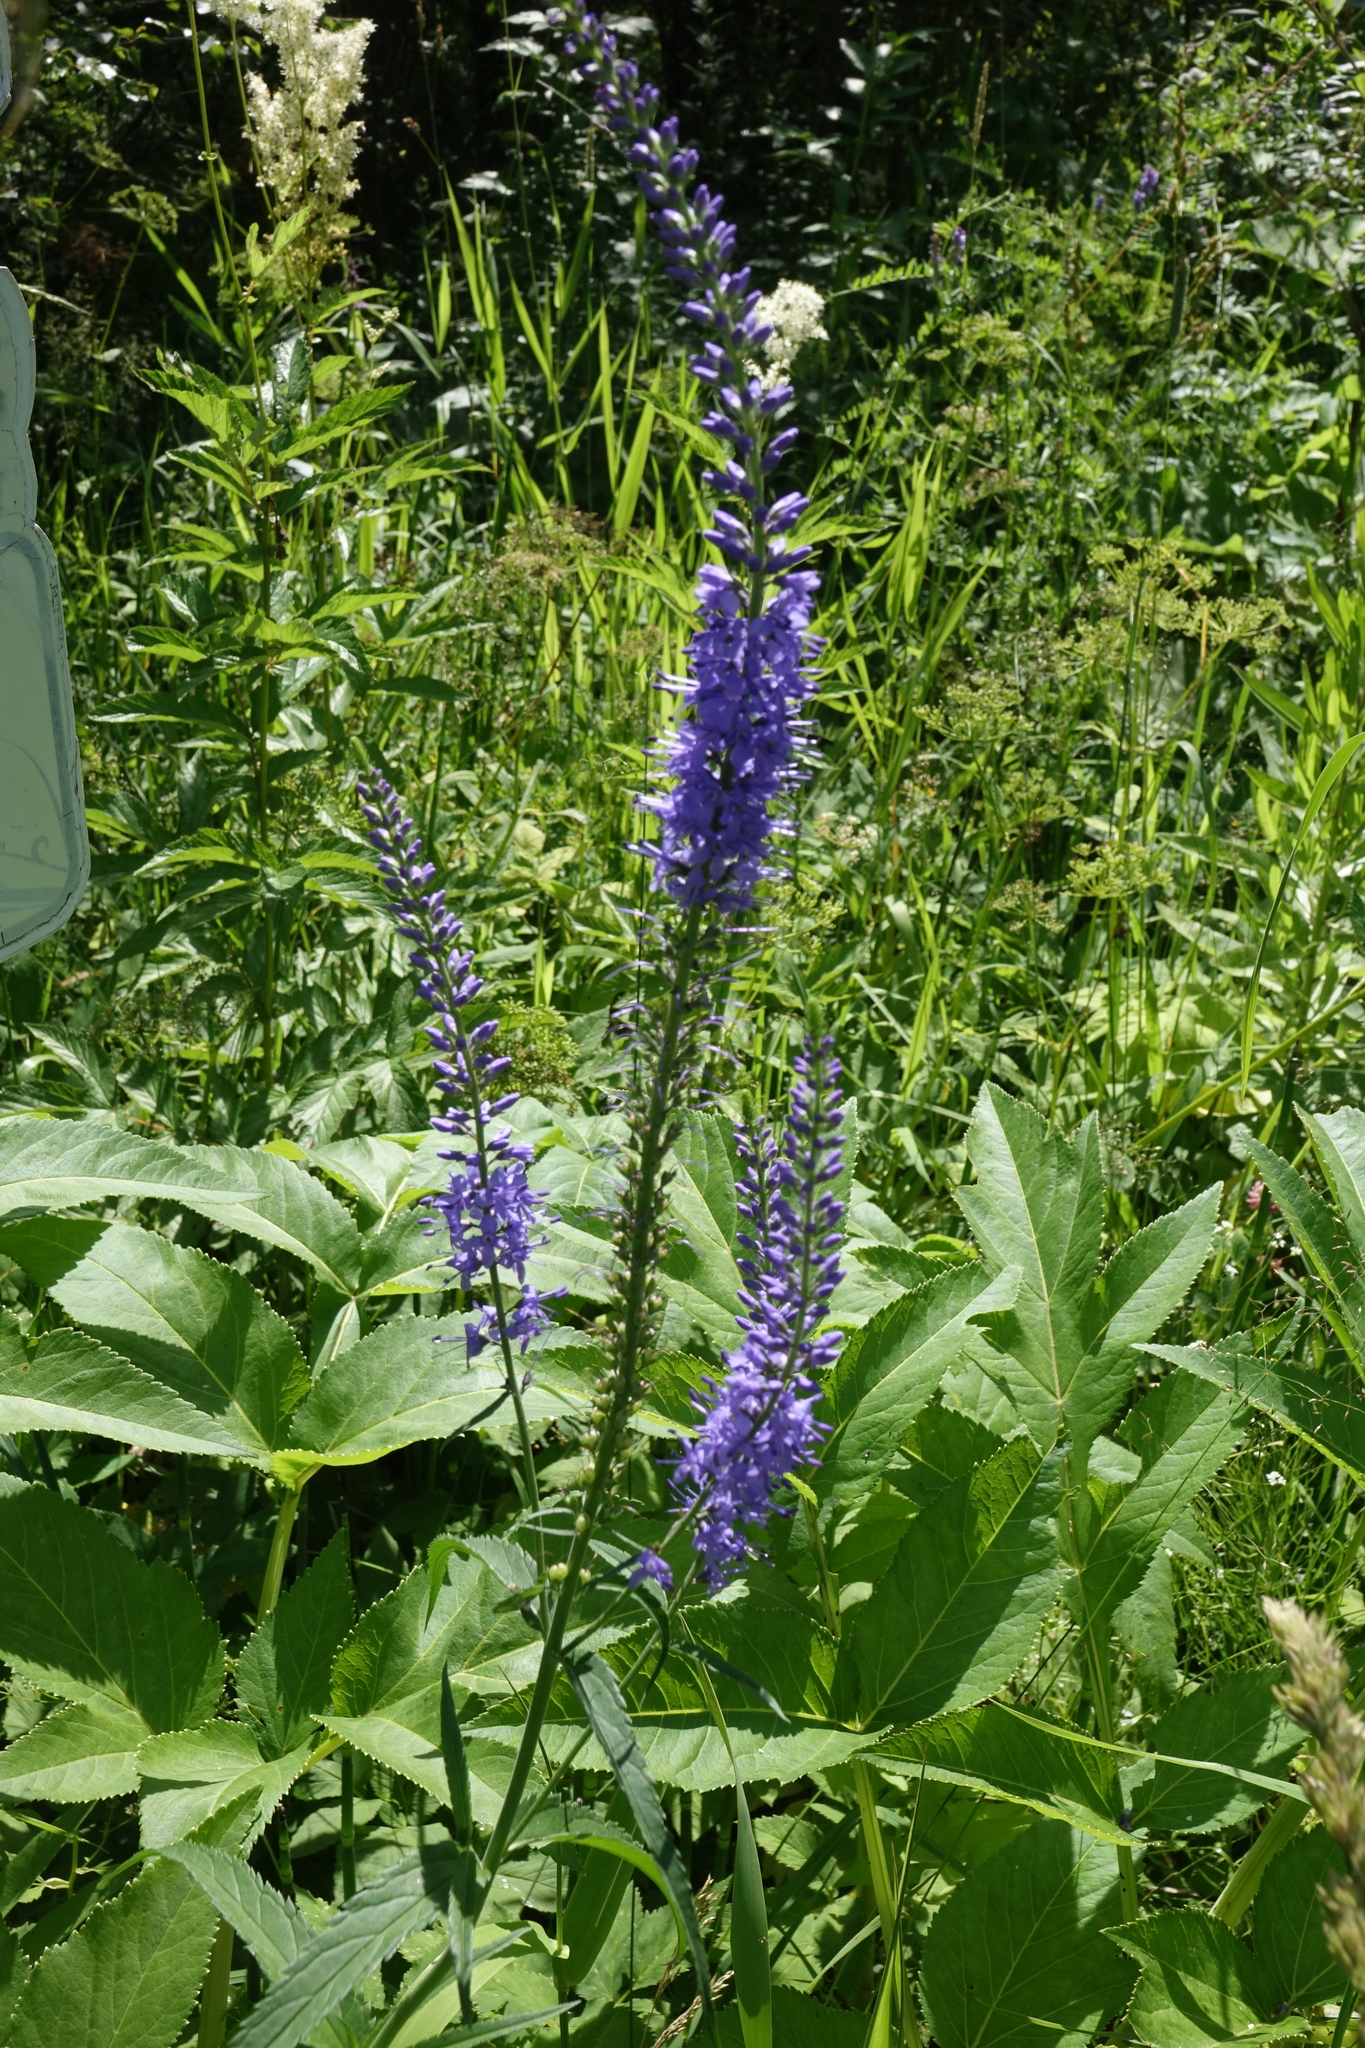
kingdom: Plantae
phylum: Tracheophyta
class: Magnoliopsida
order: Lamiales
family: Plantaginaceae
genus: Veronica
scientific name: Veronica longifolia
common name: Garden speedwell
